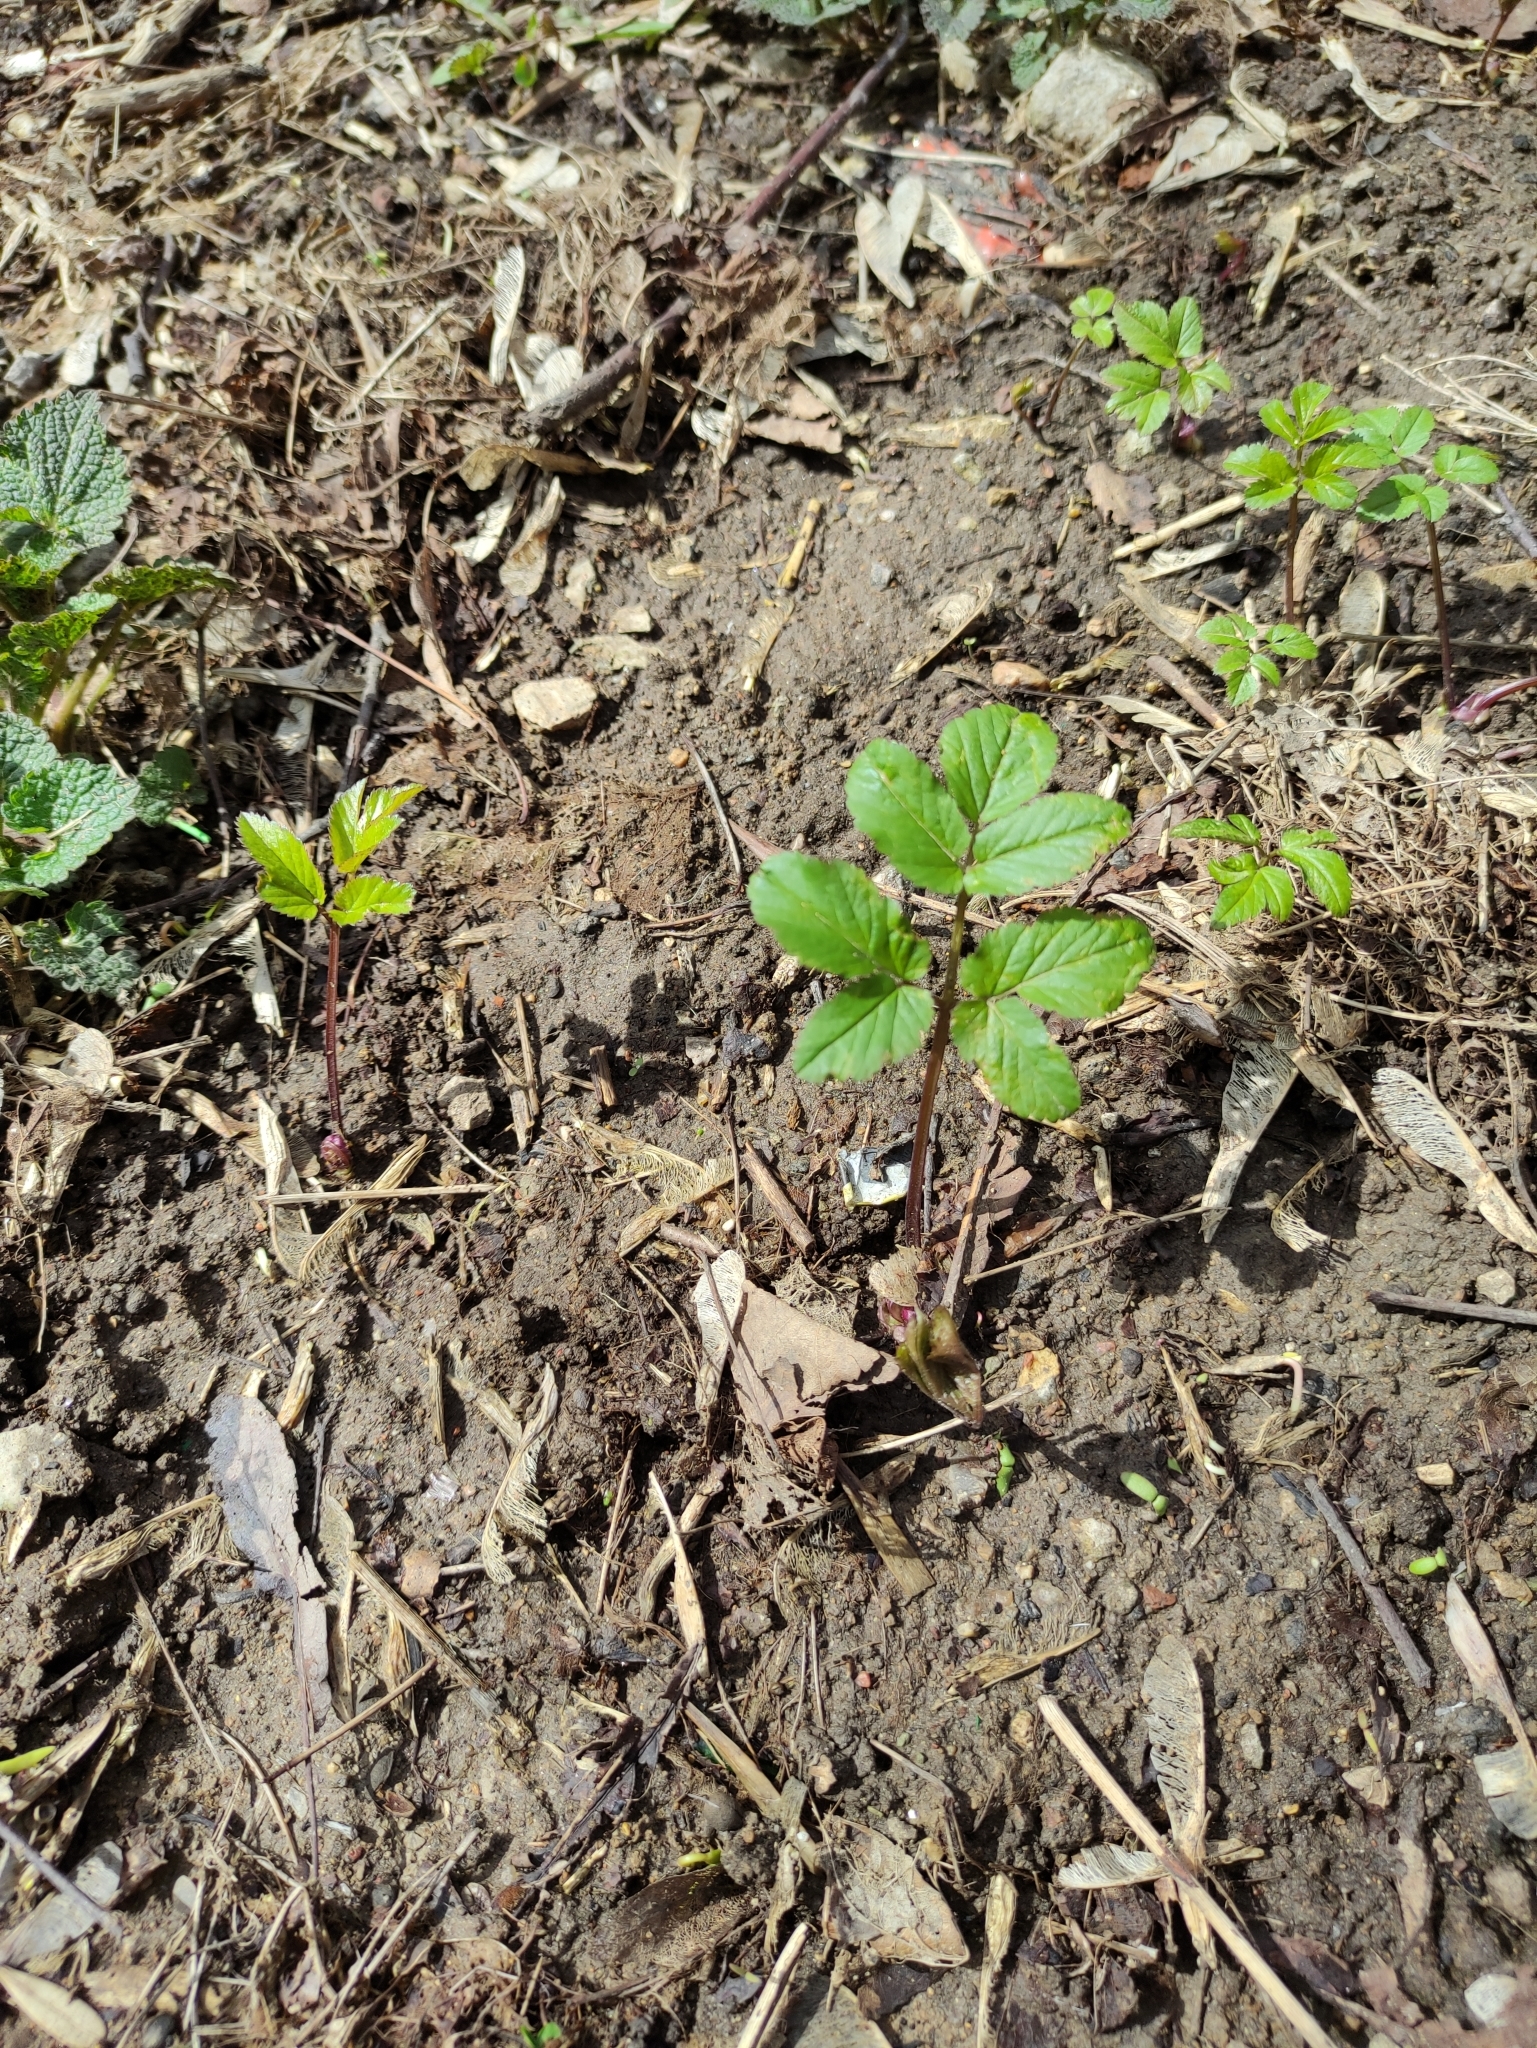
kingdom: Plantae
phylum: Tracheophyta
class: Magnoliopsida
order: Apiales
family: Apiaceae
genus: Aegopodium
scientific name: Aegopodium podagraria
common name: Ground-elder
